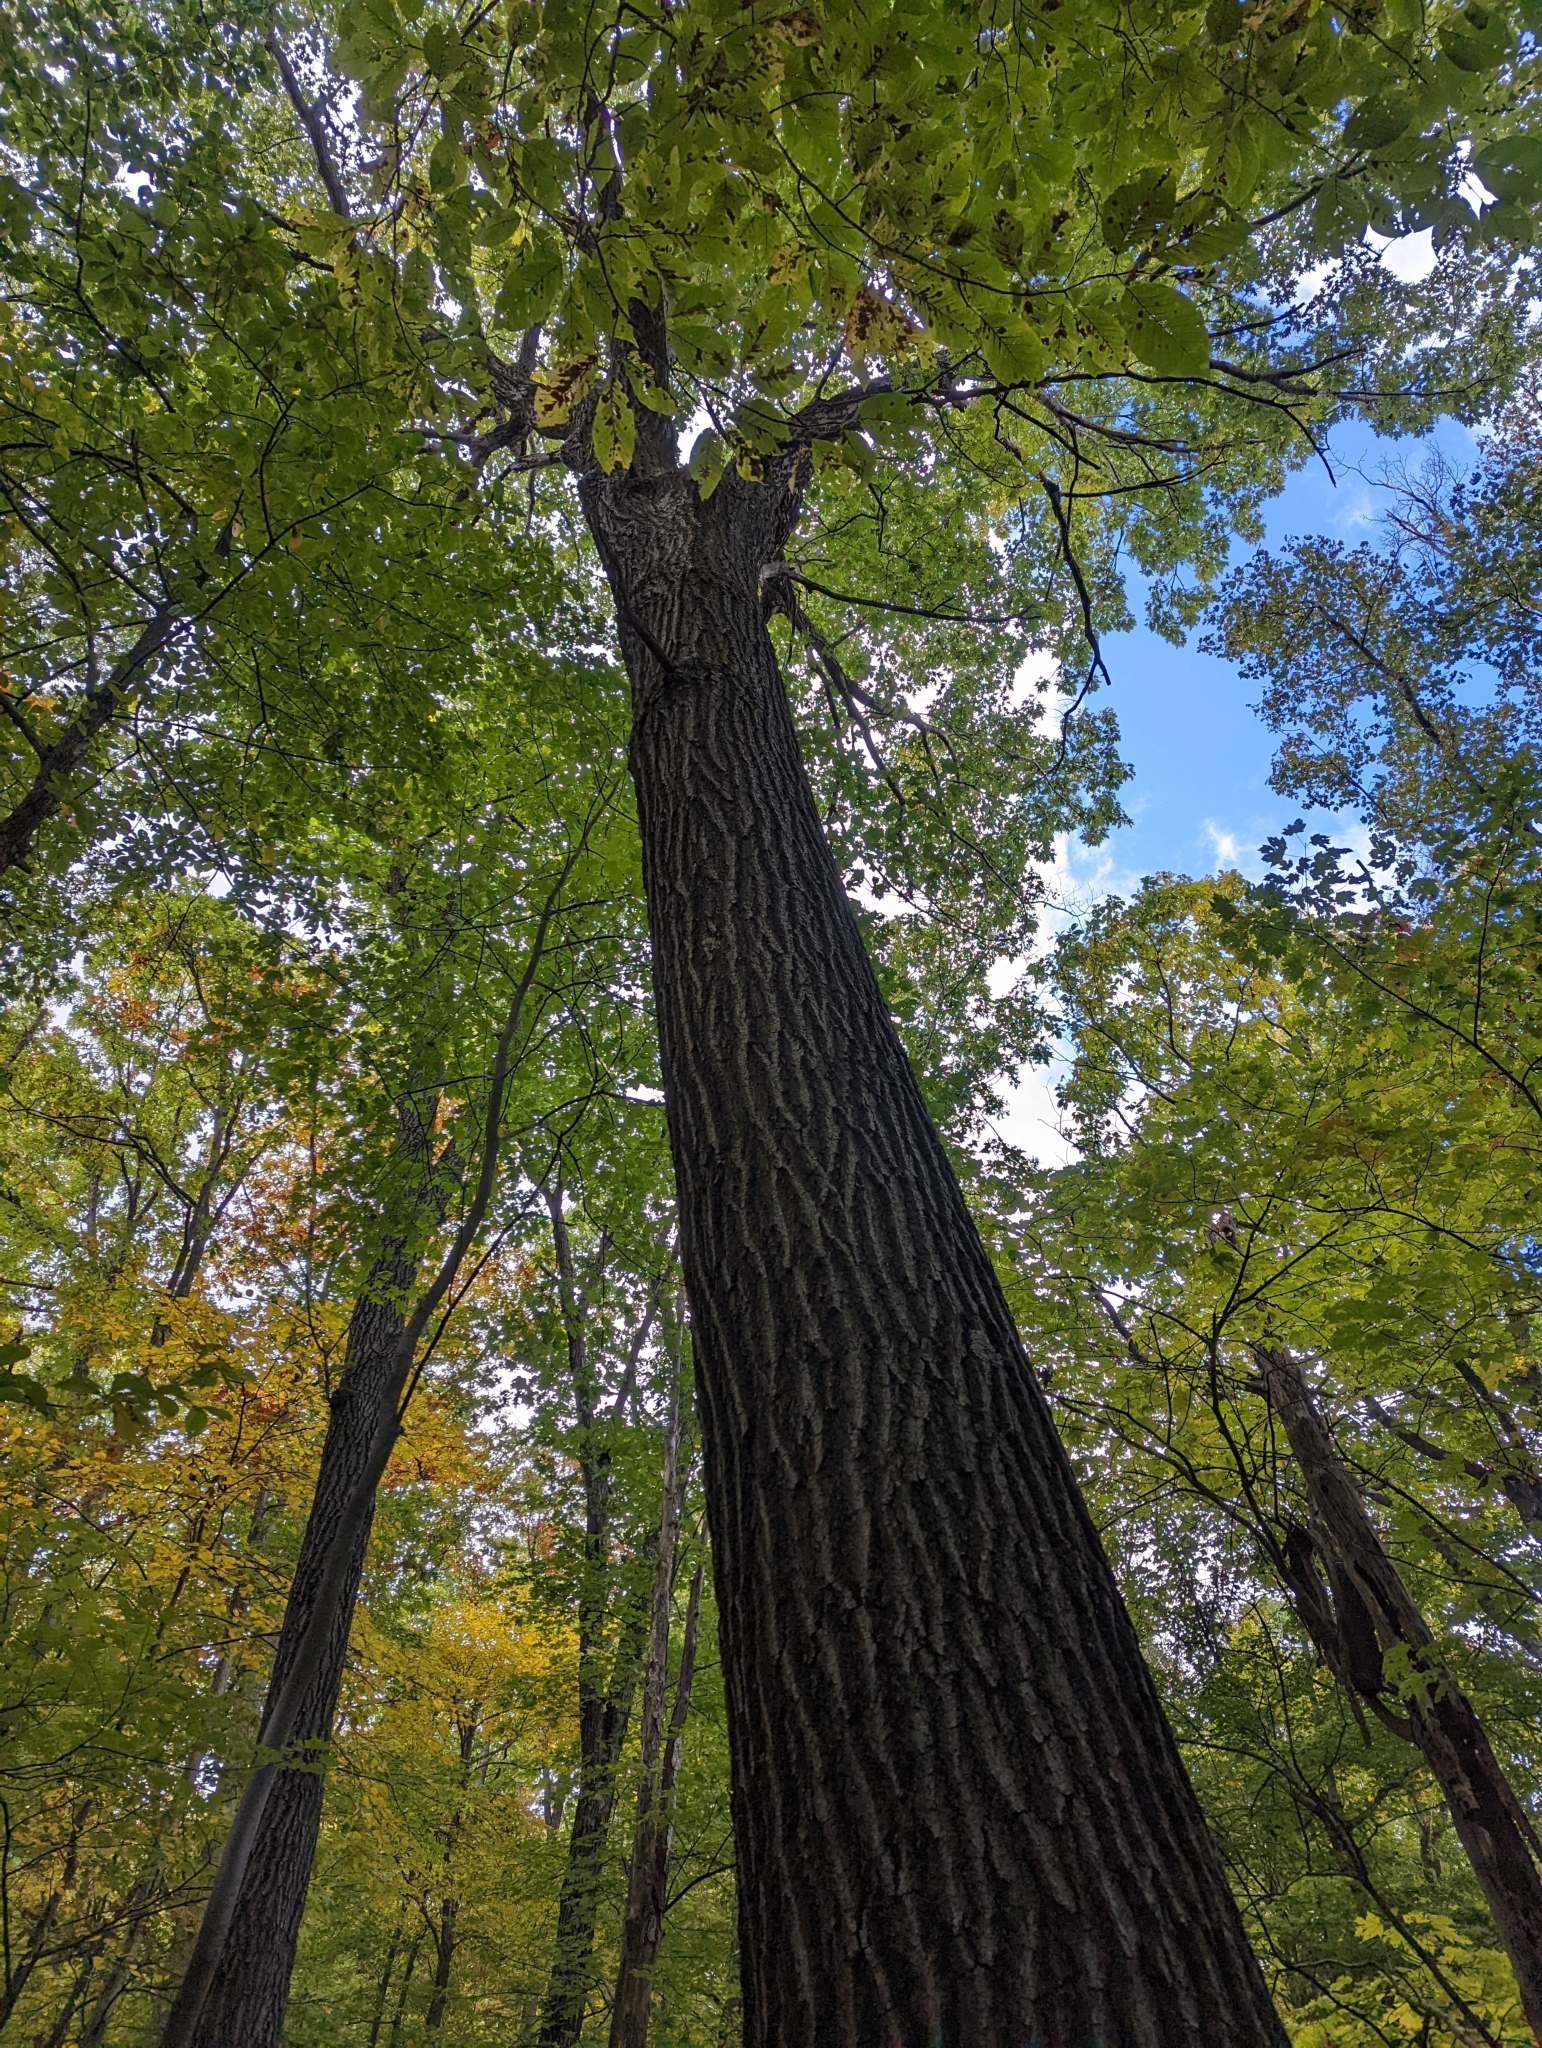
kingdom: Plantae
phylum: Tracheophyta
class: Magnoliopsida
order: Fagales
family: Fagaceae
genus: Quercus
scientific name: Quercus rubra
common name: Red oak
